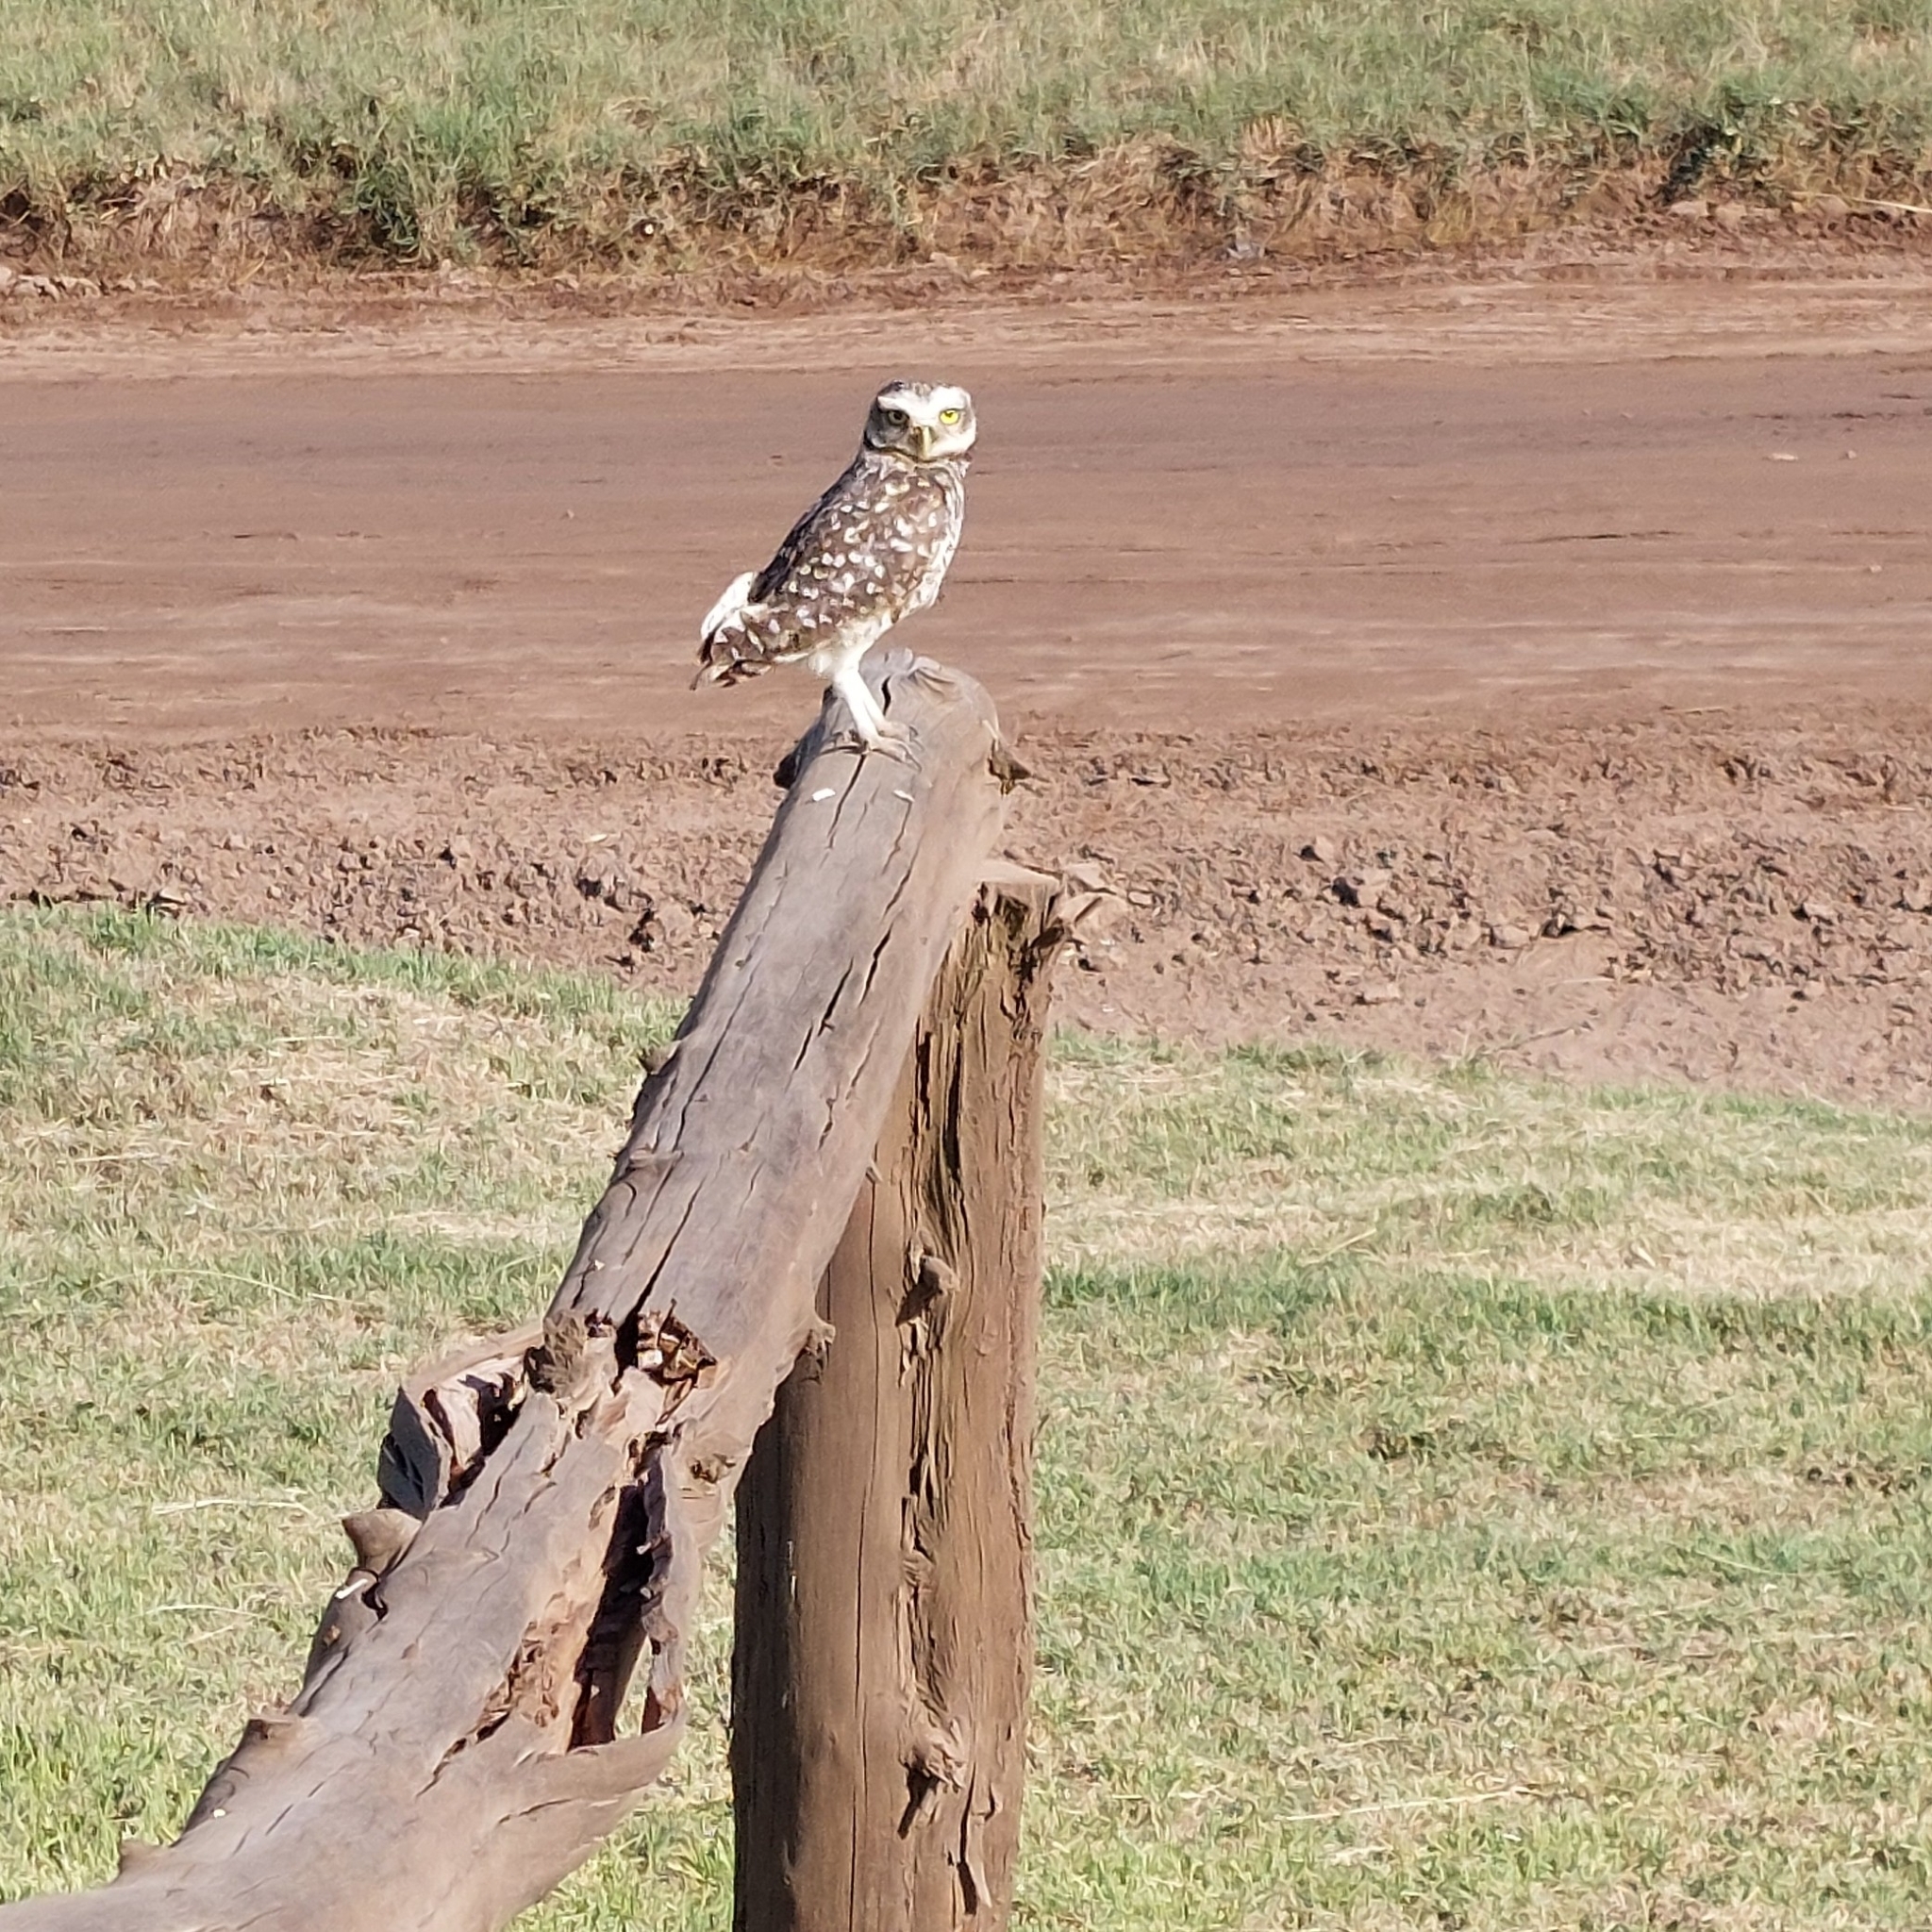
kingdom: Animalia
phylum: Chordata
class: Aves
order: Strigiformes
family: Strigidae
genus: Athene
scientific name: Athene cunicularia
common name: Burrowing owl
